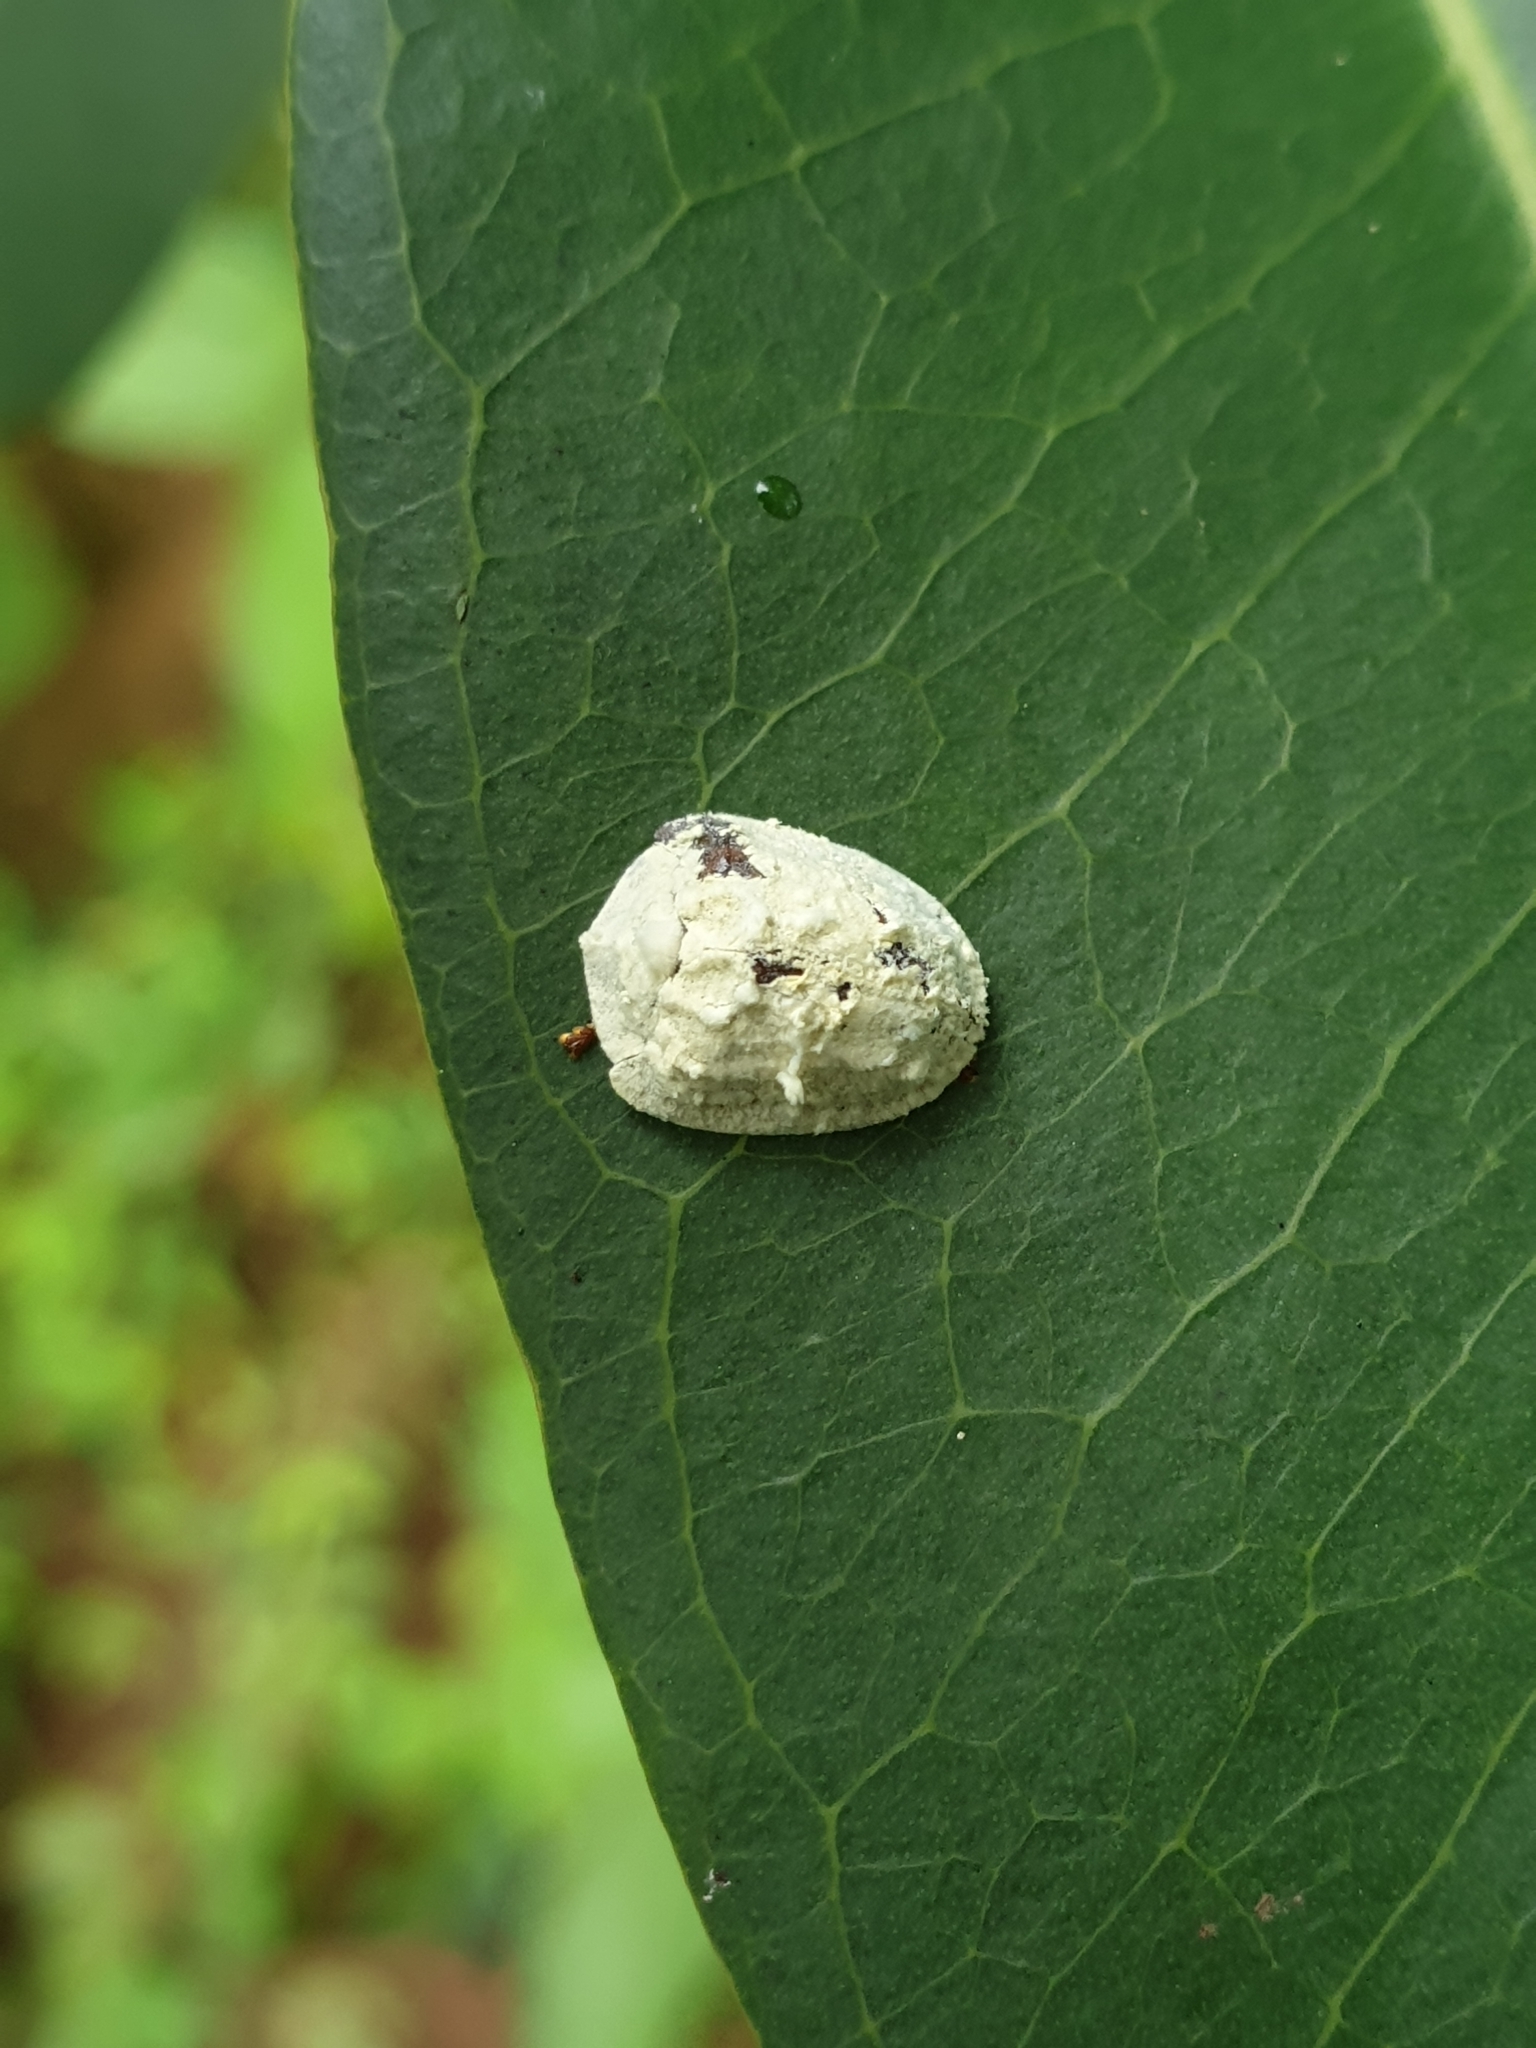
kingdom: Animalia
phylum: Arthropoda
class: Insecta
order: Coleoptera
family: Chrysomelidae
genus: Silana
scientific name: Silana farinosa
